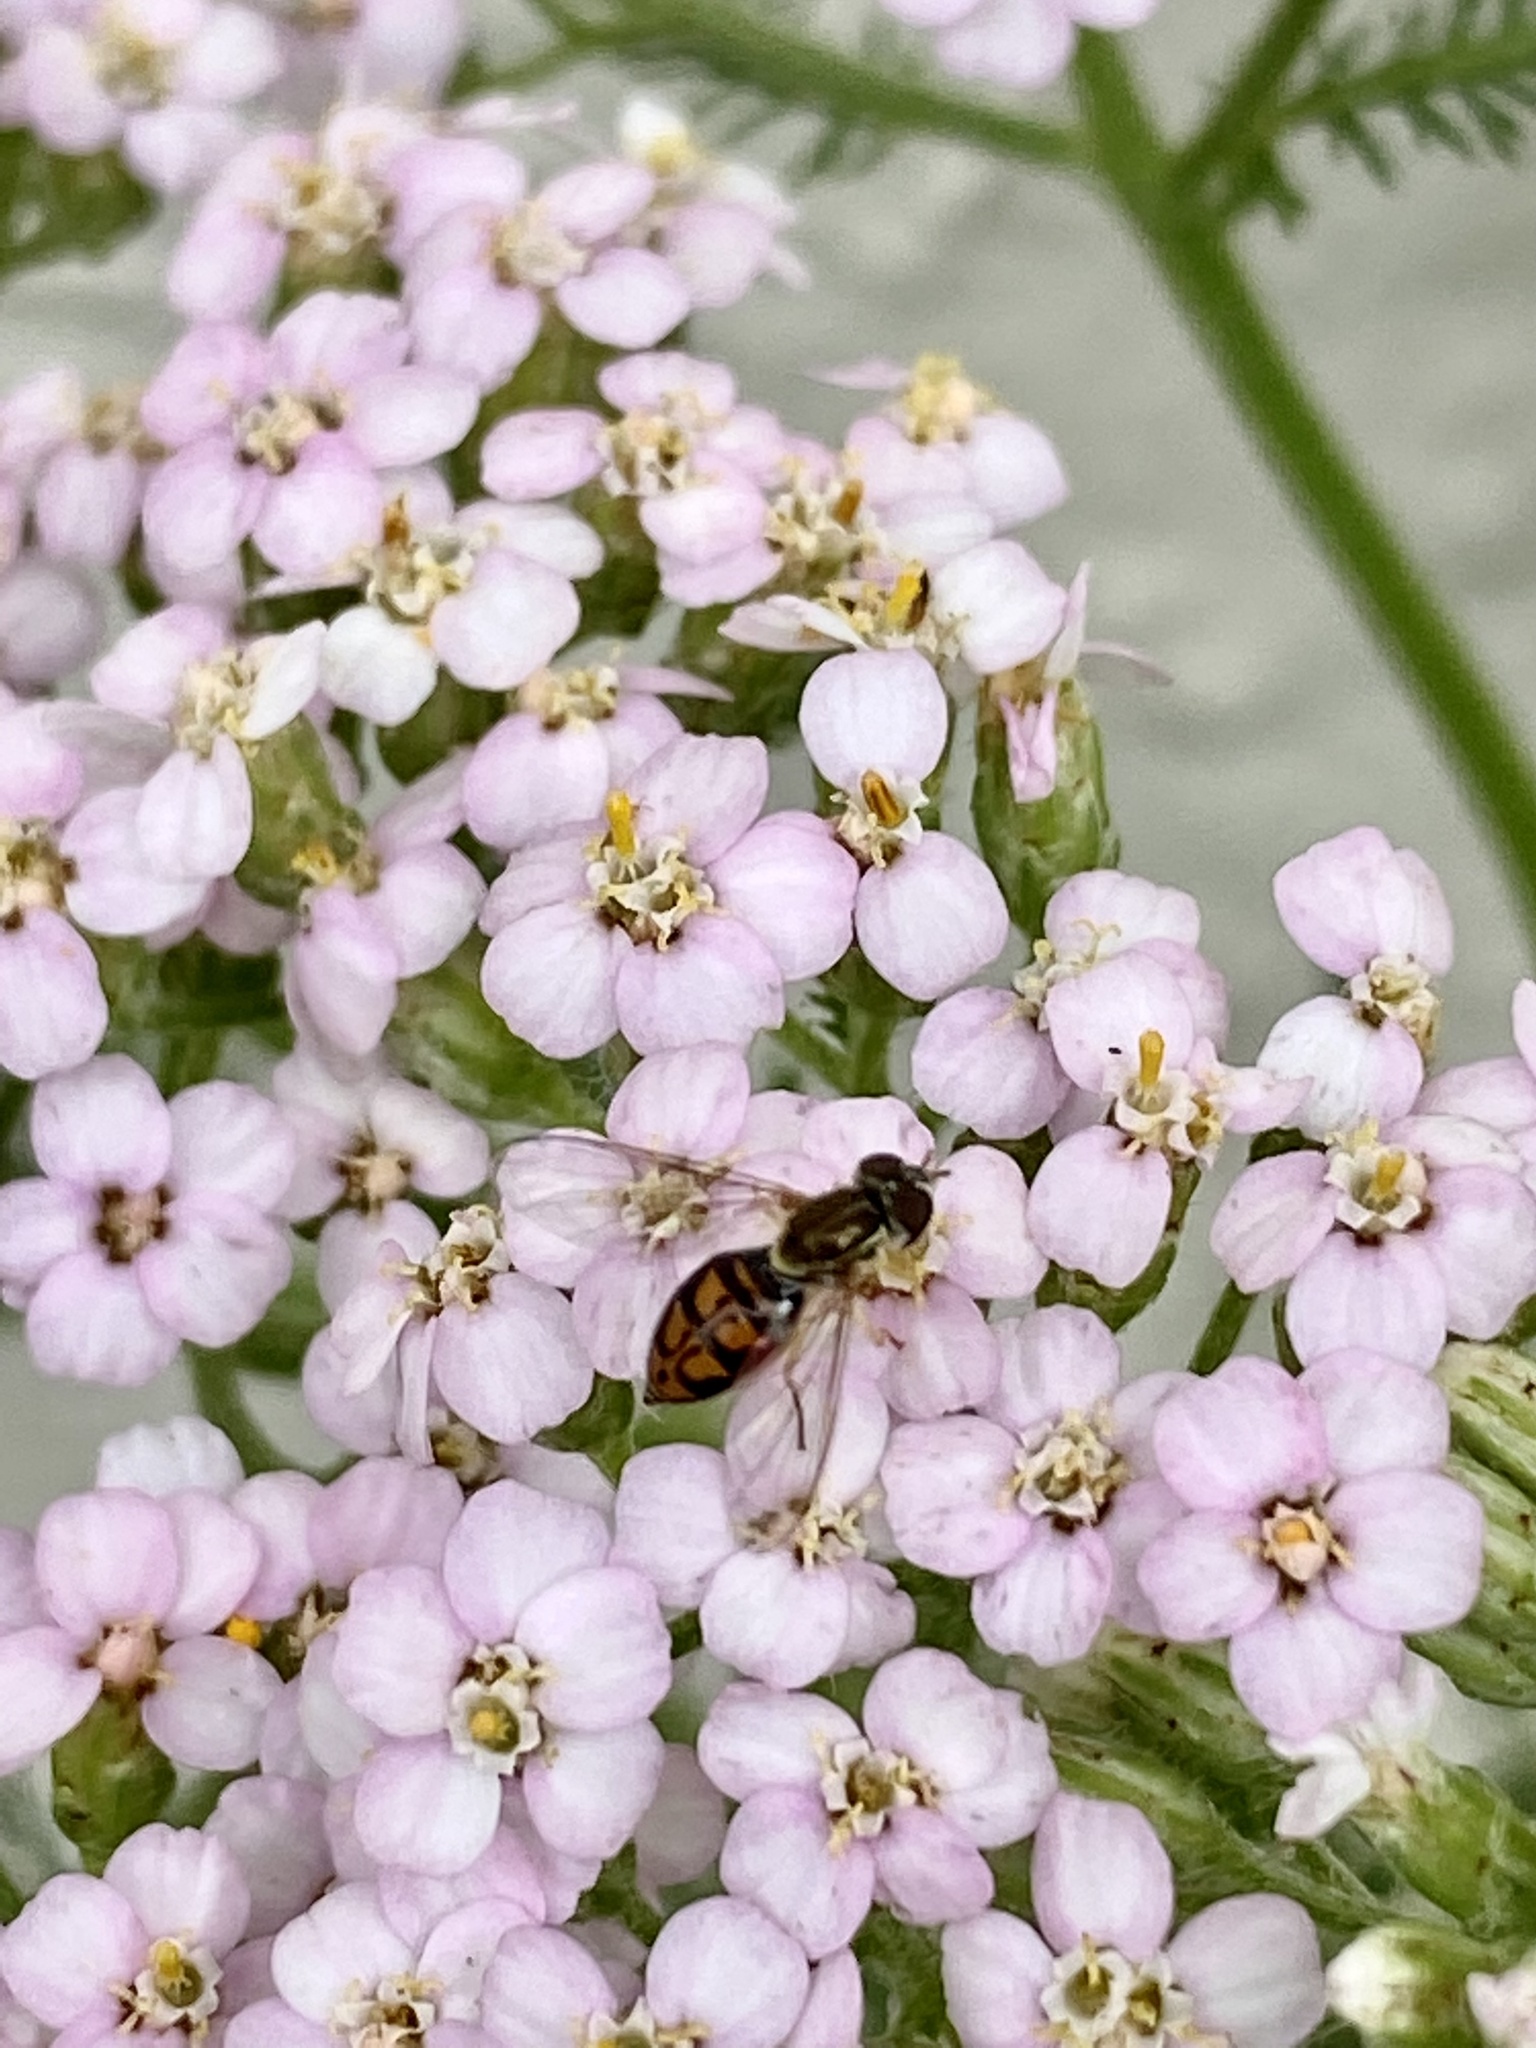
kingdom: Plantae
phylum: Tracheophyta
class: Magnoliopsida
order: Asterales
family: Asteraceae
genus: Achillea
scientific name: Achillea millefolium
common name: Yarrow
